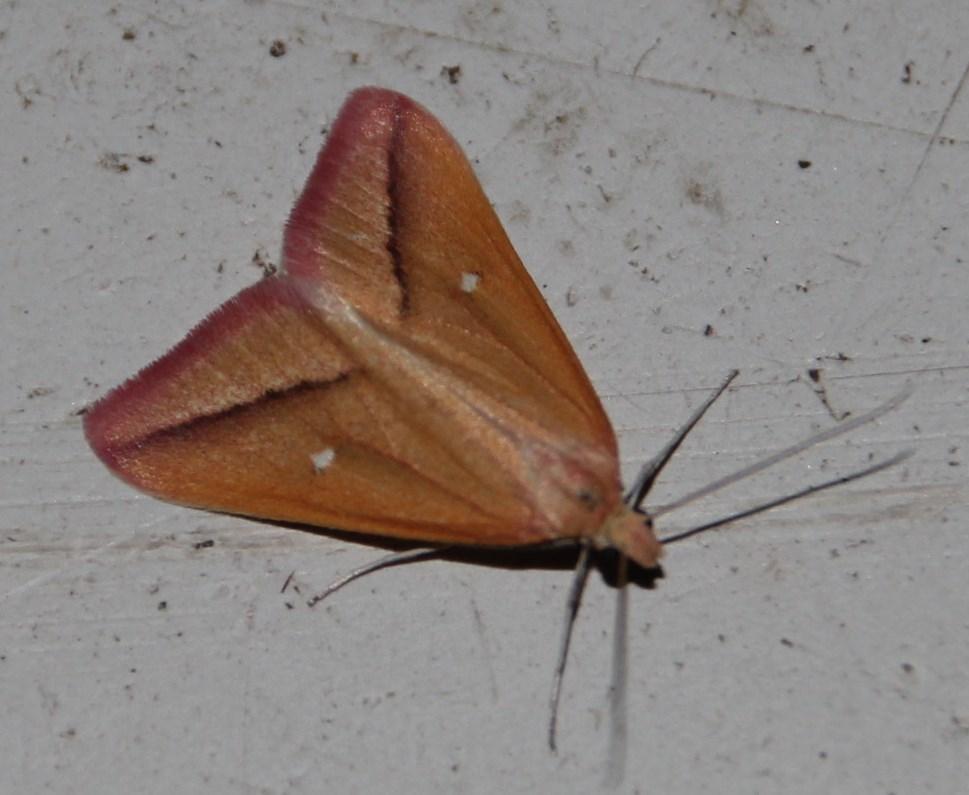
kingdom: Animalia
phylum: Arthropoda
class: Insecta
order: Lepidoptera
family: Geometridae
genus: Rhodometra
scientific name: Rhodometra participata
